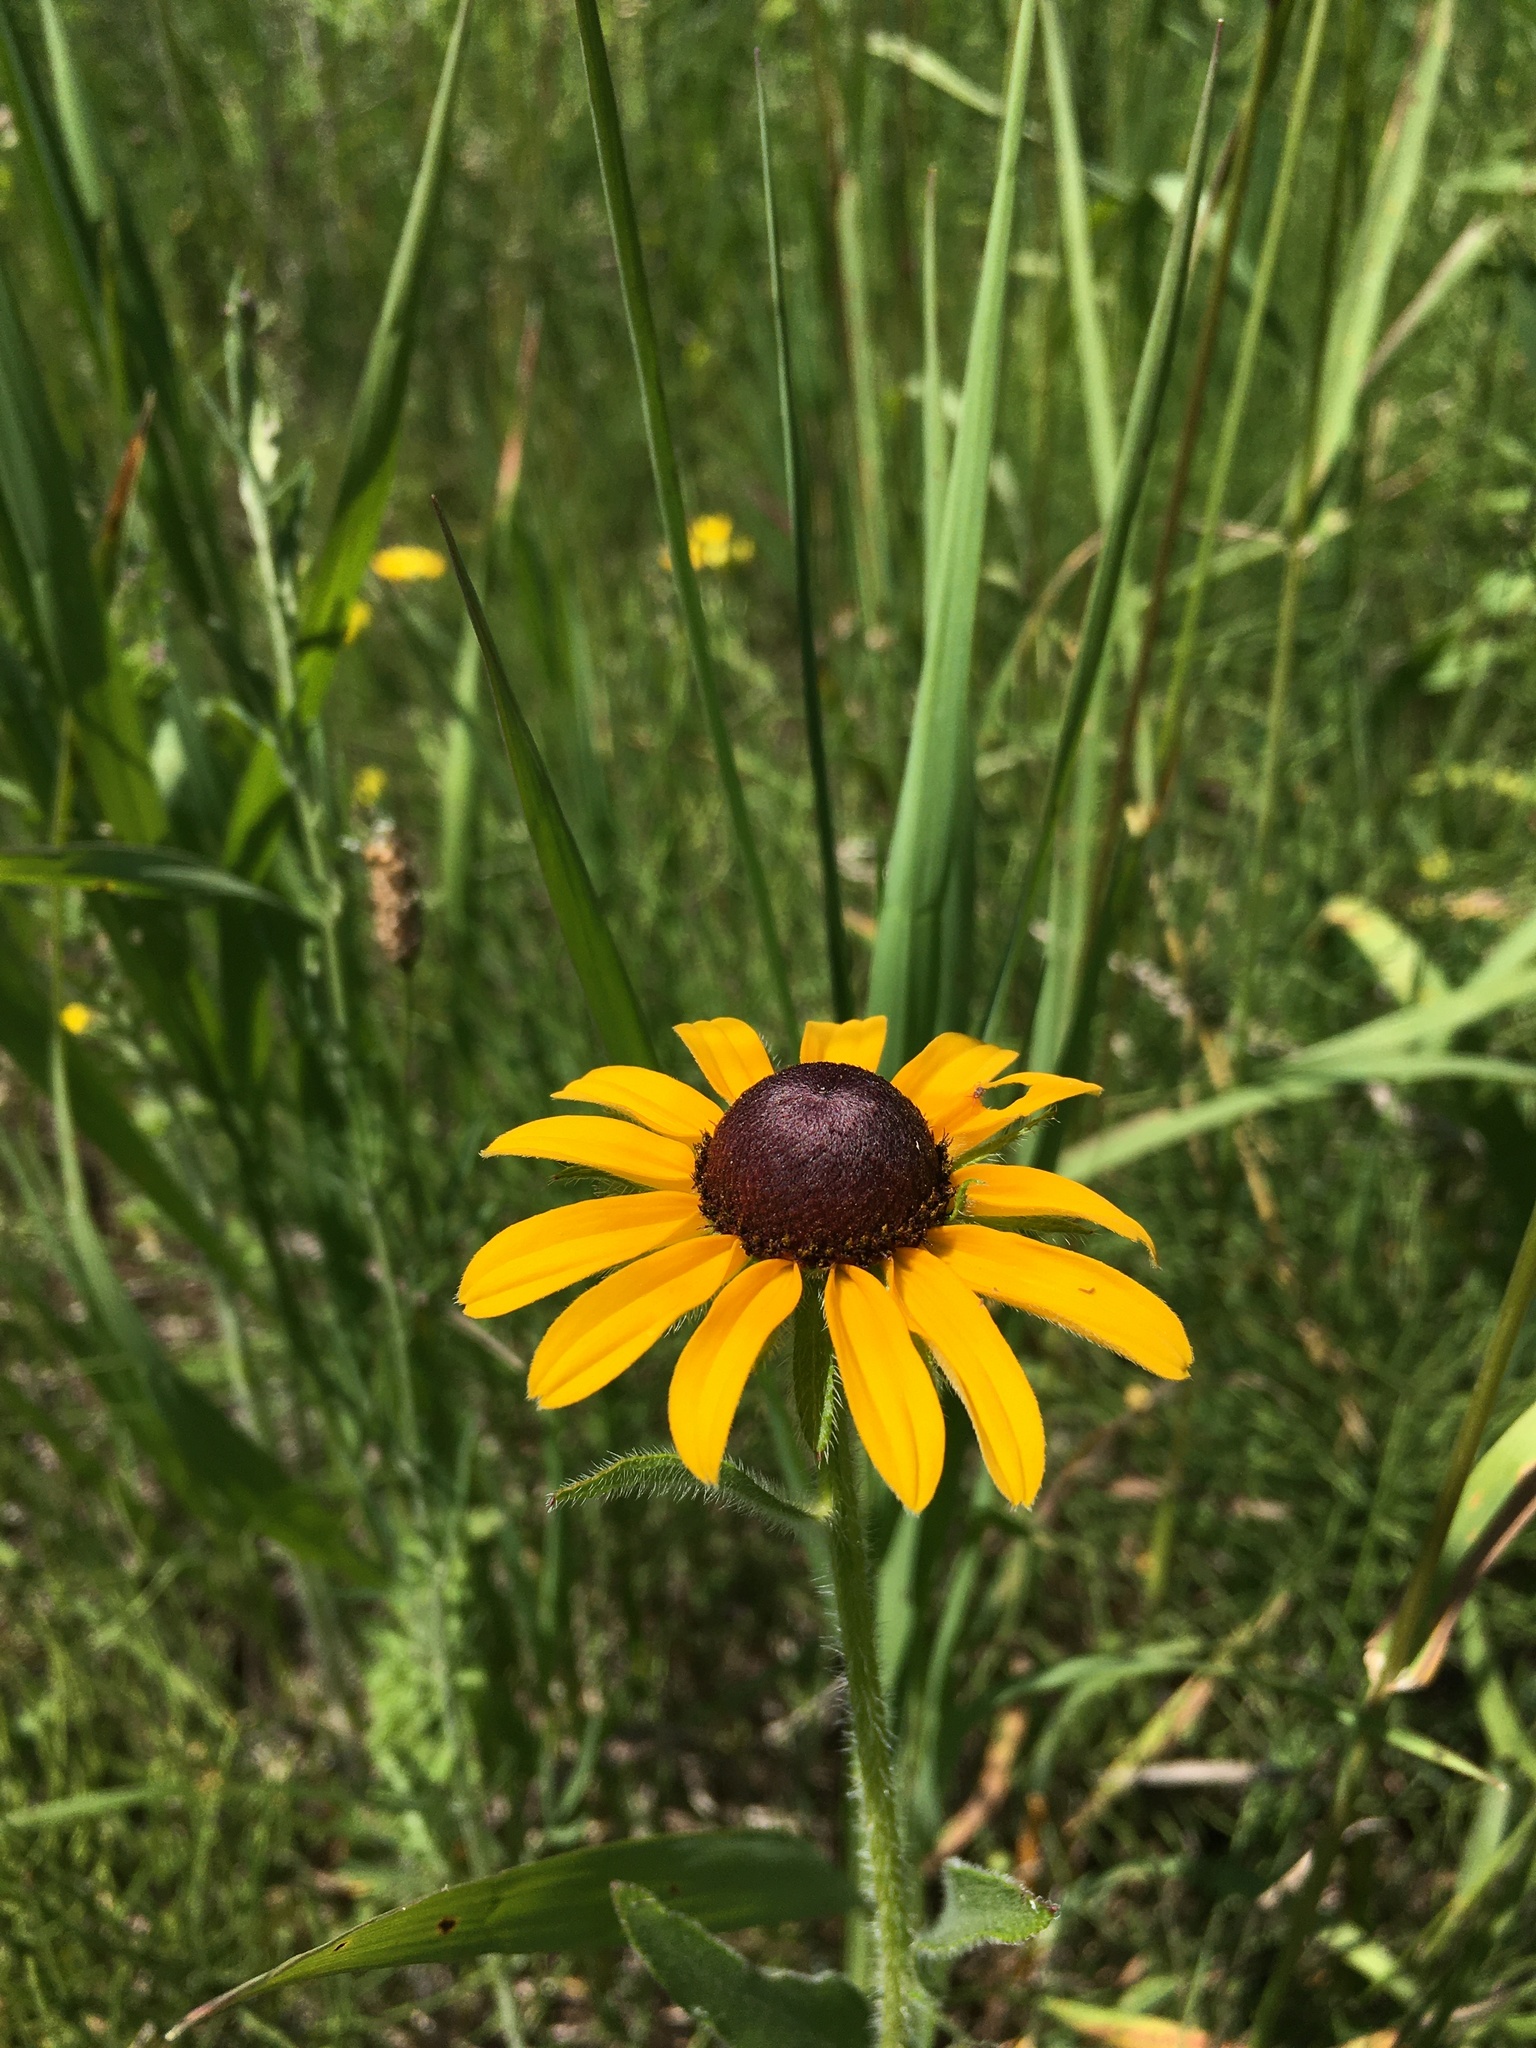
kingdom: Plantae
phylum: Tracheophyta
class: Magnoliopsida
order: Asterales
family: Asteraceae
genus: Rudbeckia
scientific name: Rudbeckia hirta
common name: Black-eyed-susan
